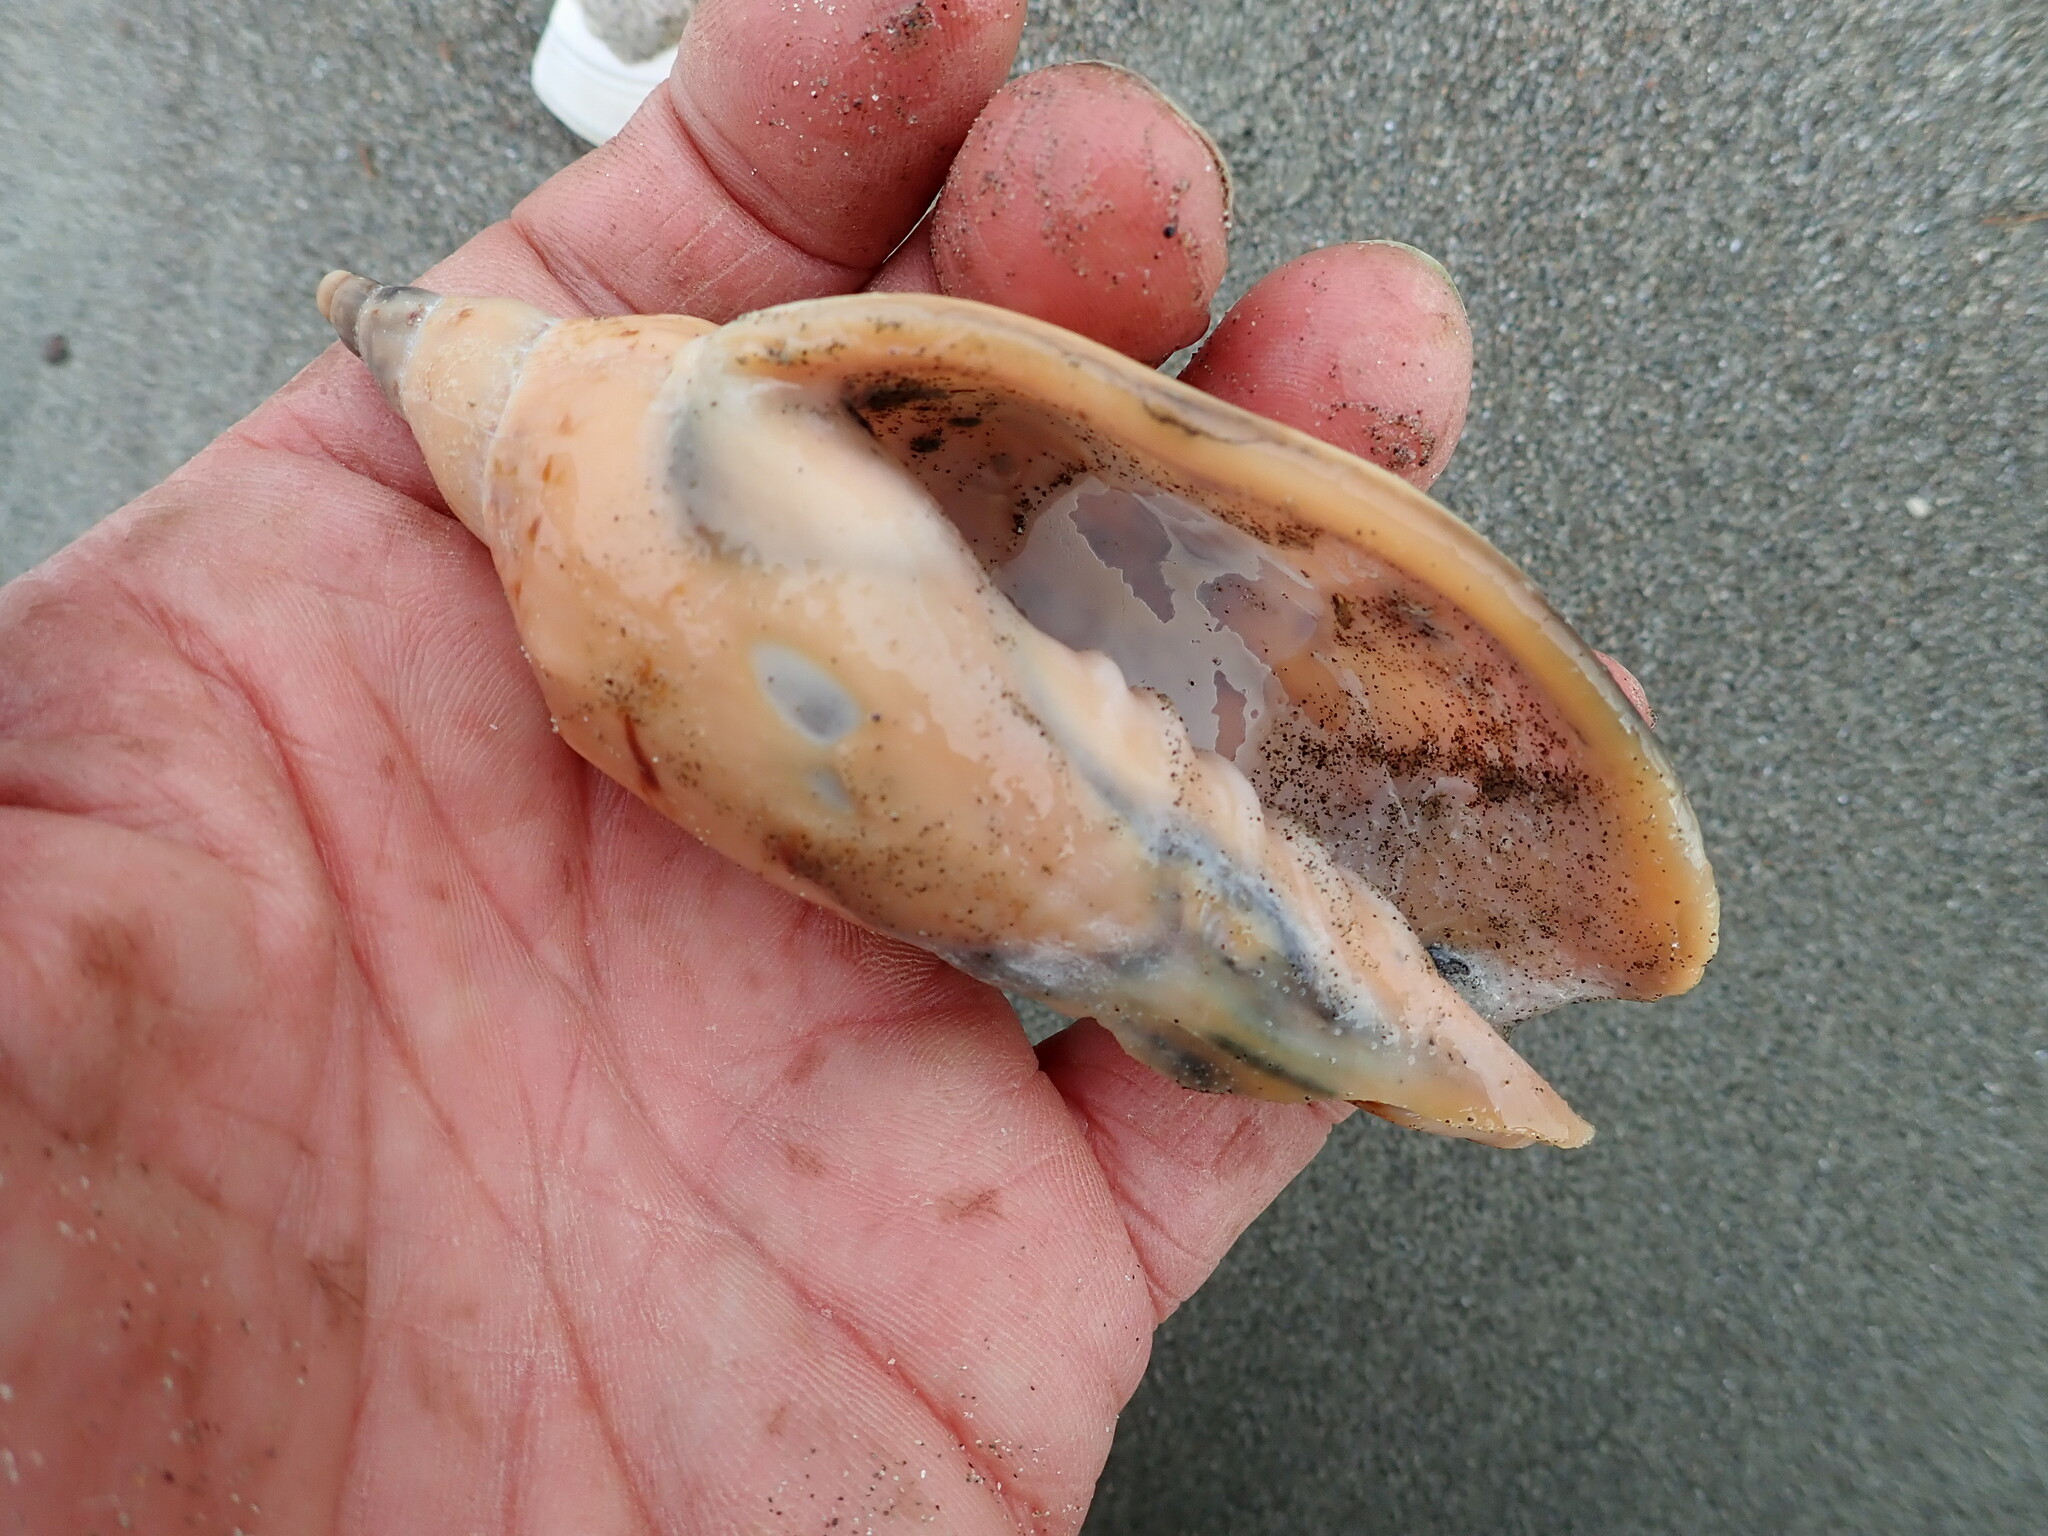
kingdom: Animalia
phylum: Mollusca
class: Gastropoda
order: Neogastropoda
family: Volutidae
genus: Alcithoe
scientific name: Alcithoe arabica
